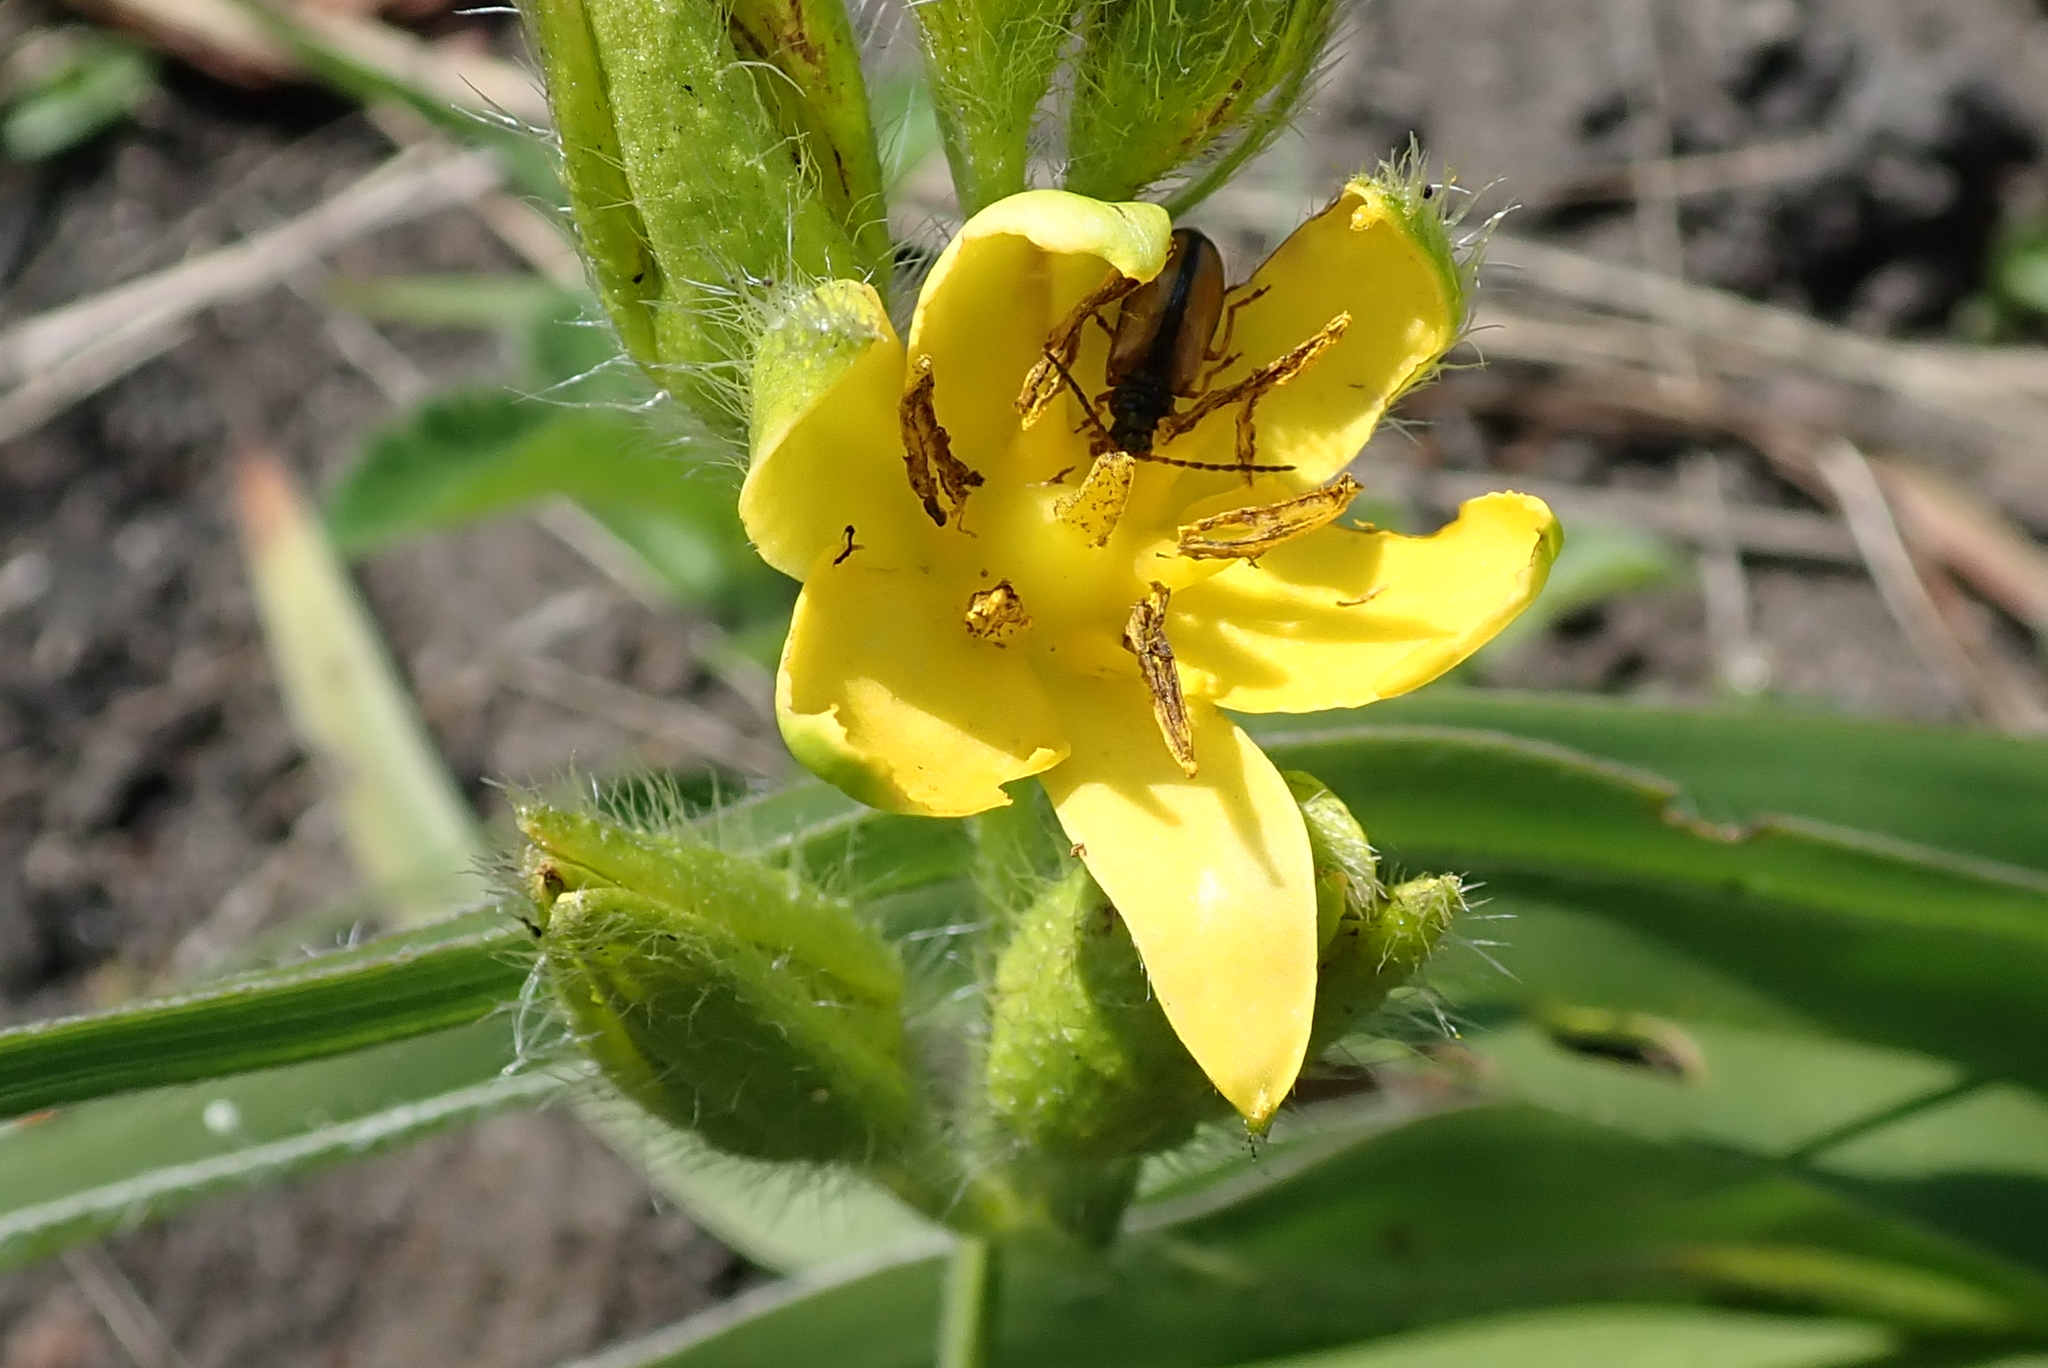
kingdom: Plantae
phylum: Tracheophyta
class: Liliopsida
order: Asparagales
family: Hypoxidaceae
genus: Hypoxis
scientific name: Hypoxis hemerocallidea
